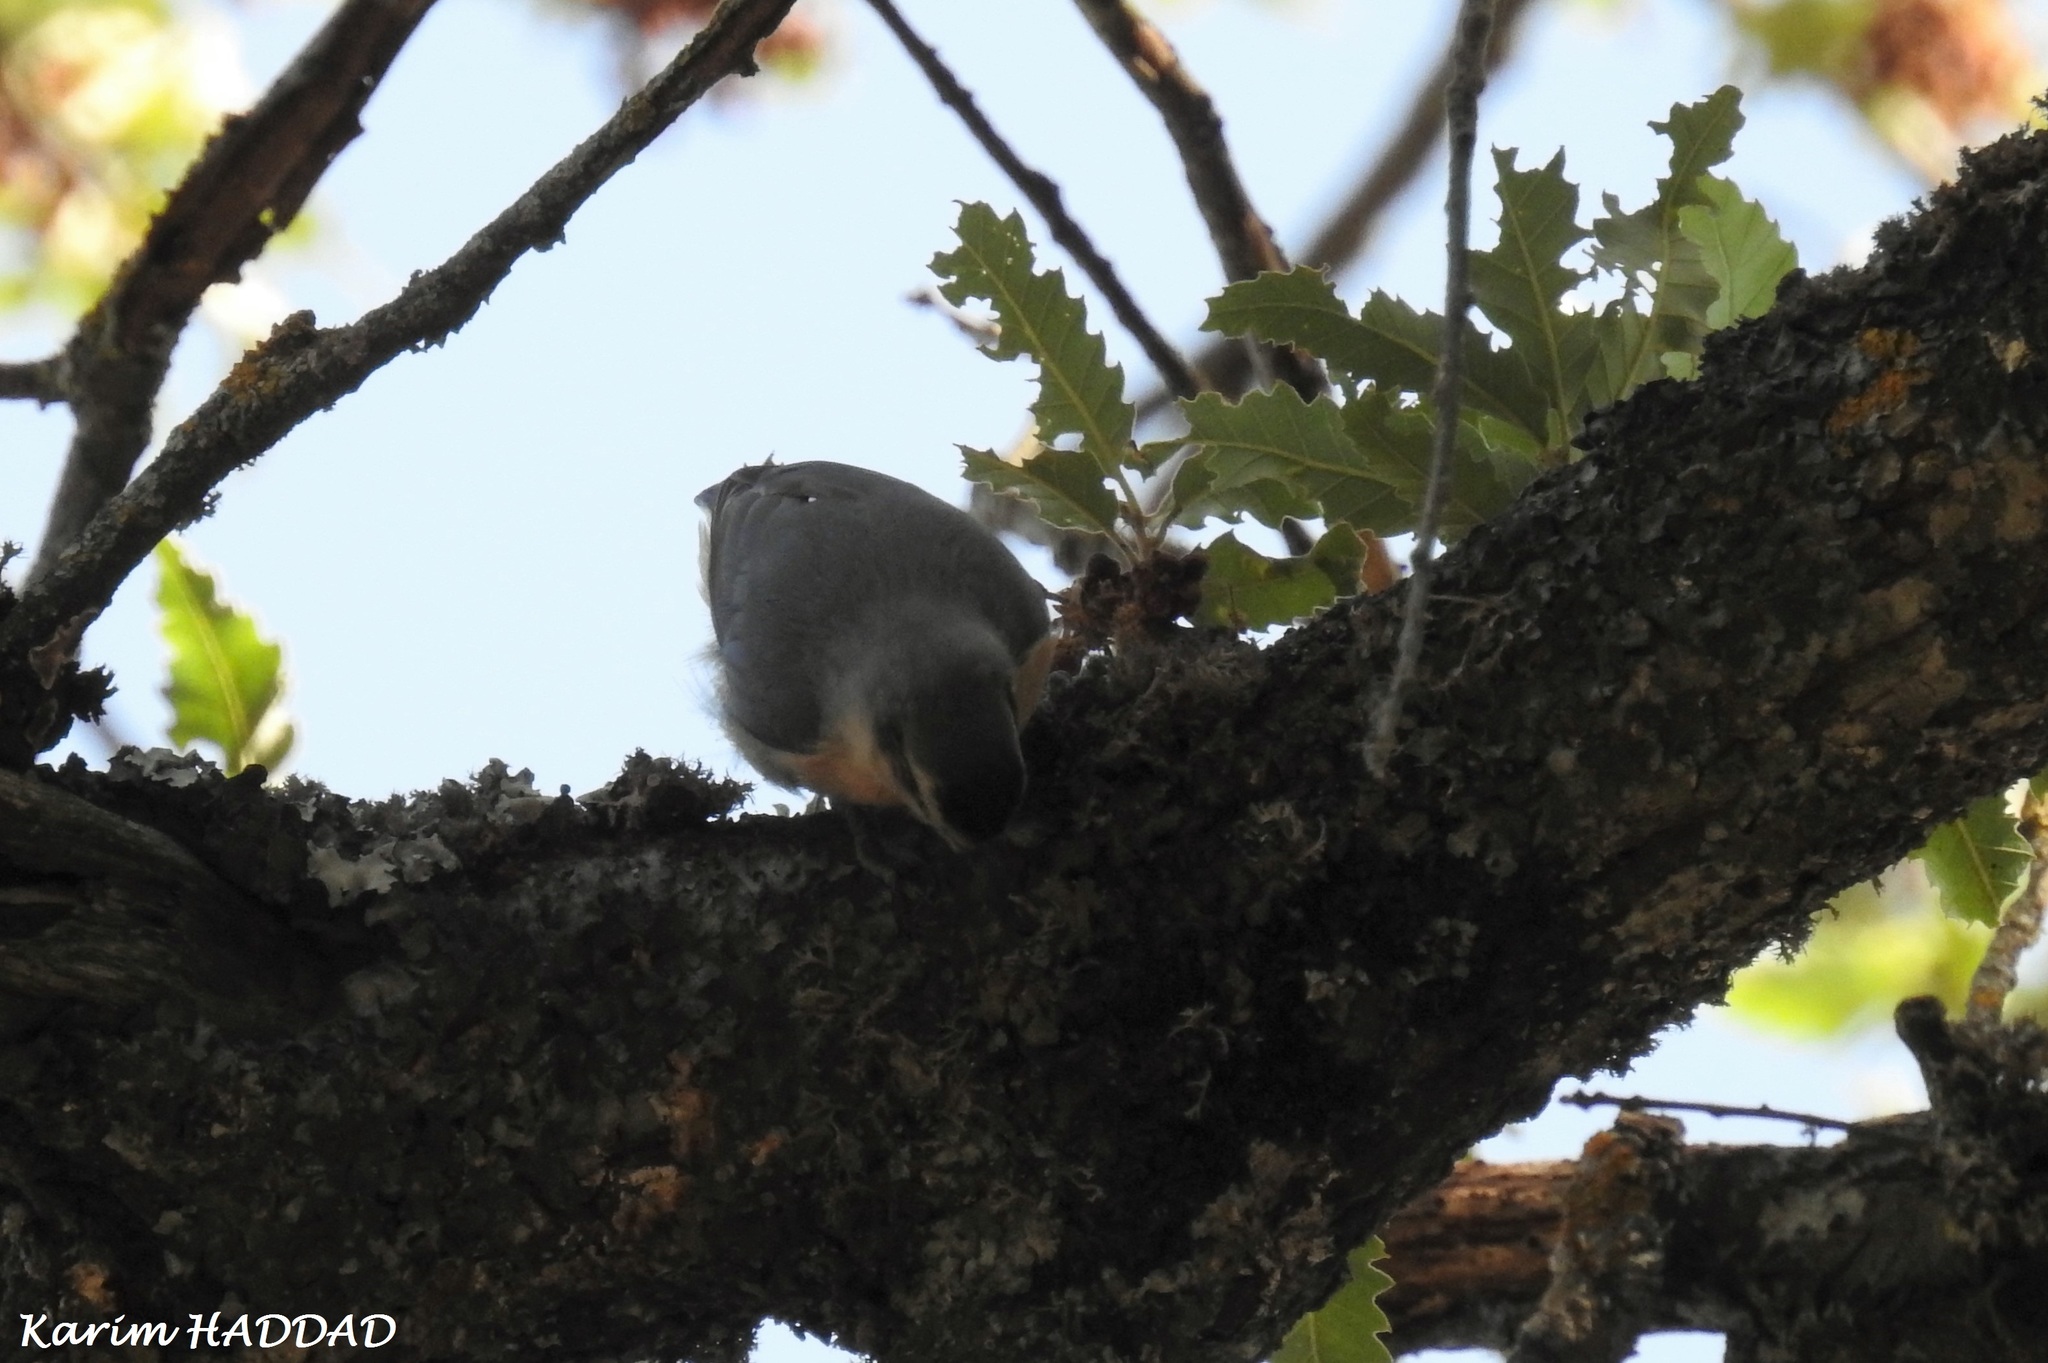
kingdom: Animalia
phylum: Chordata
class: Aves
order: Passeriformes
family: Sittidae
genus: Sitta
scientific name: Sitta ledanti
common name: Algerian nuthatch
